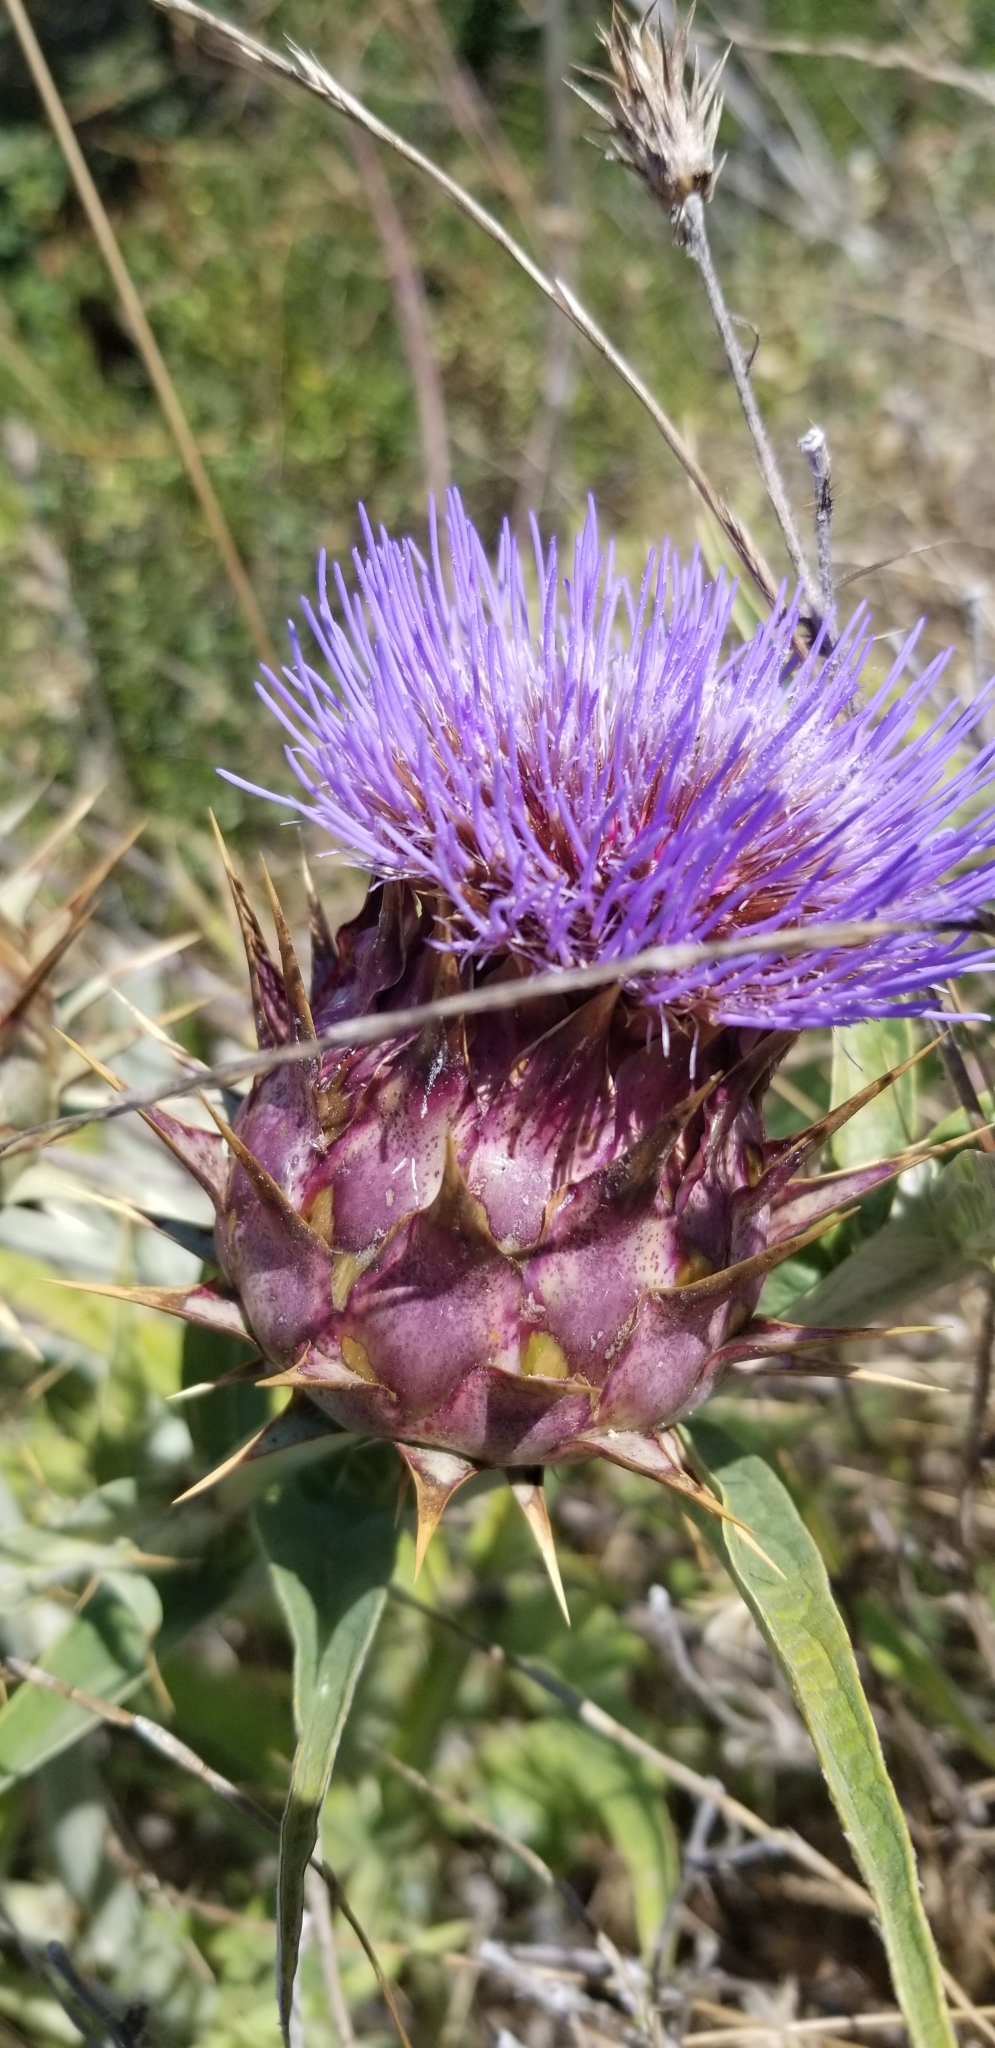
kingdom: Plantae
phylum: Tracheophyta
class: Magnoliopsida
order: Asterales
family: Asteraceae
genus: Cynara
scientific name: Cynara cardunculus
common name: Globe artichoke
